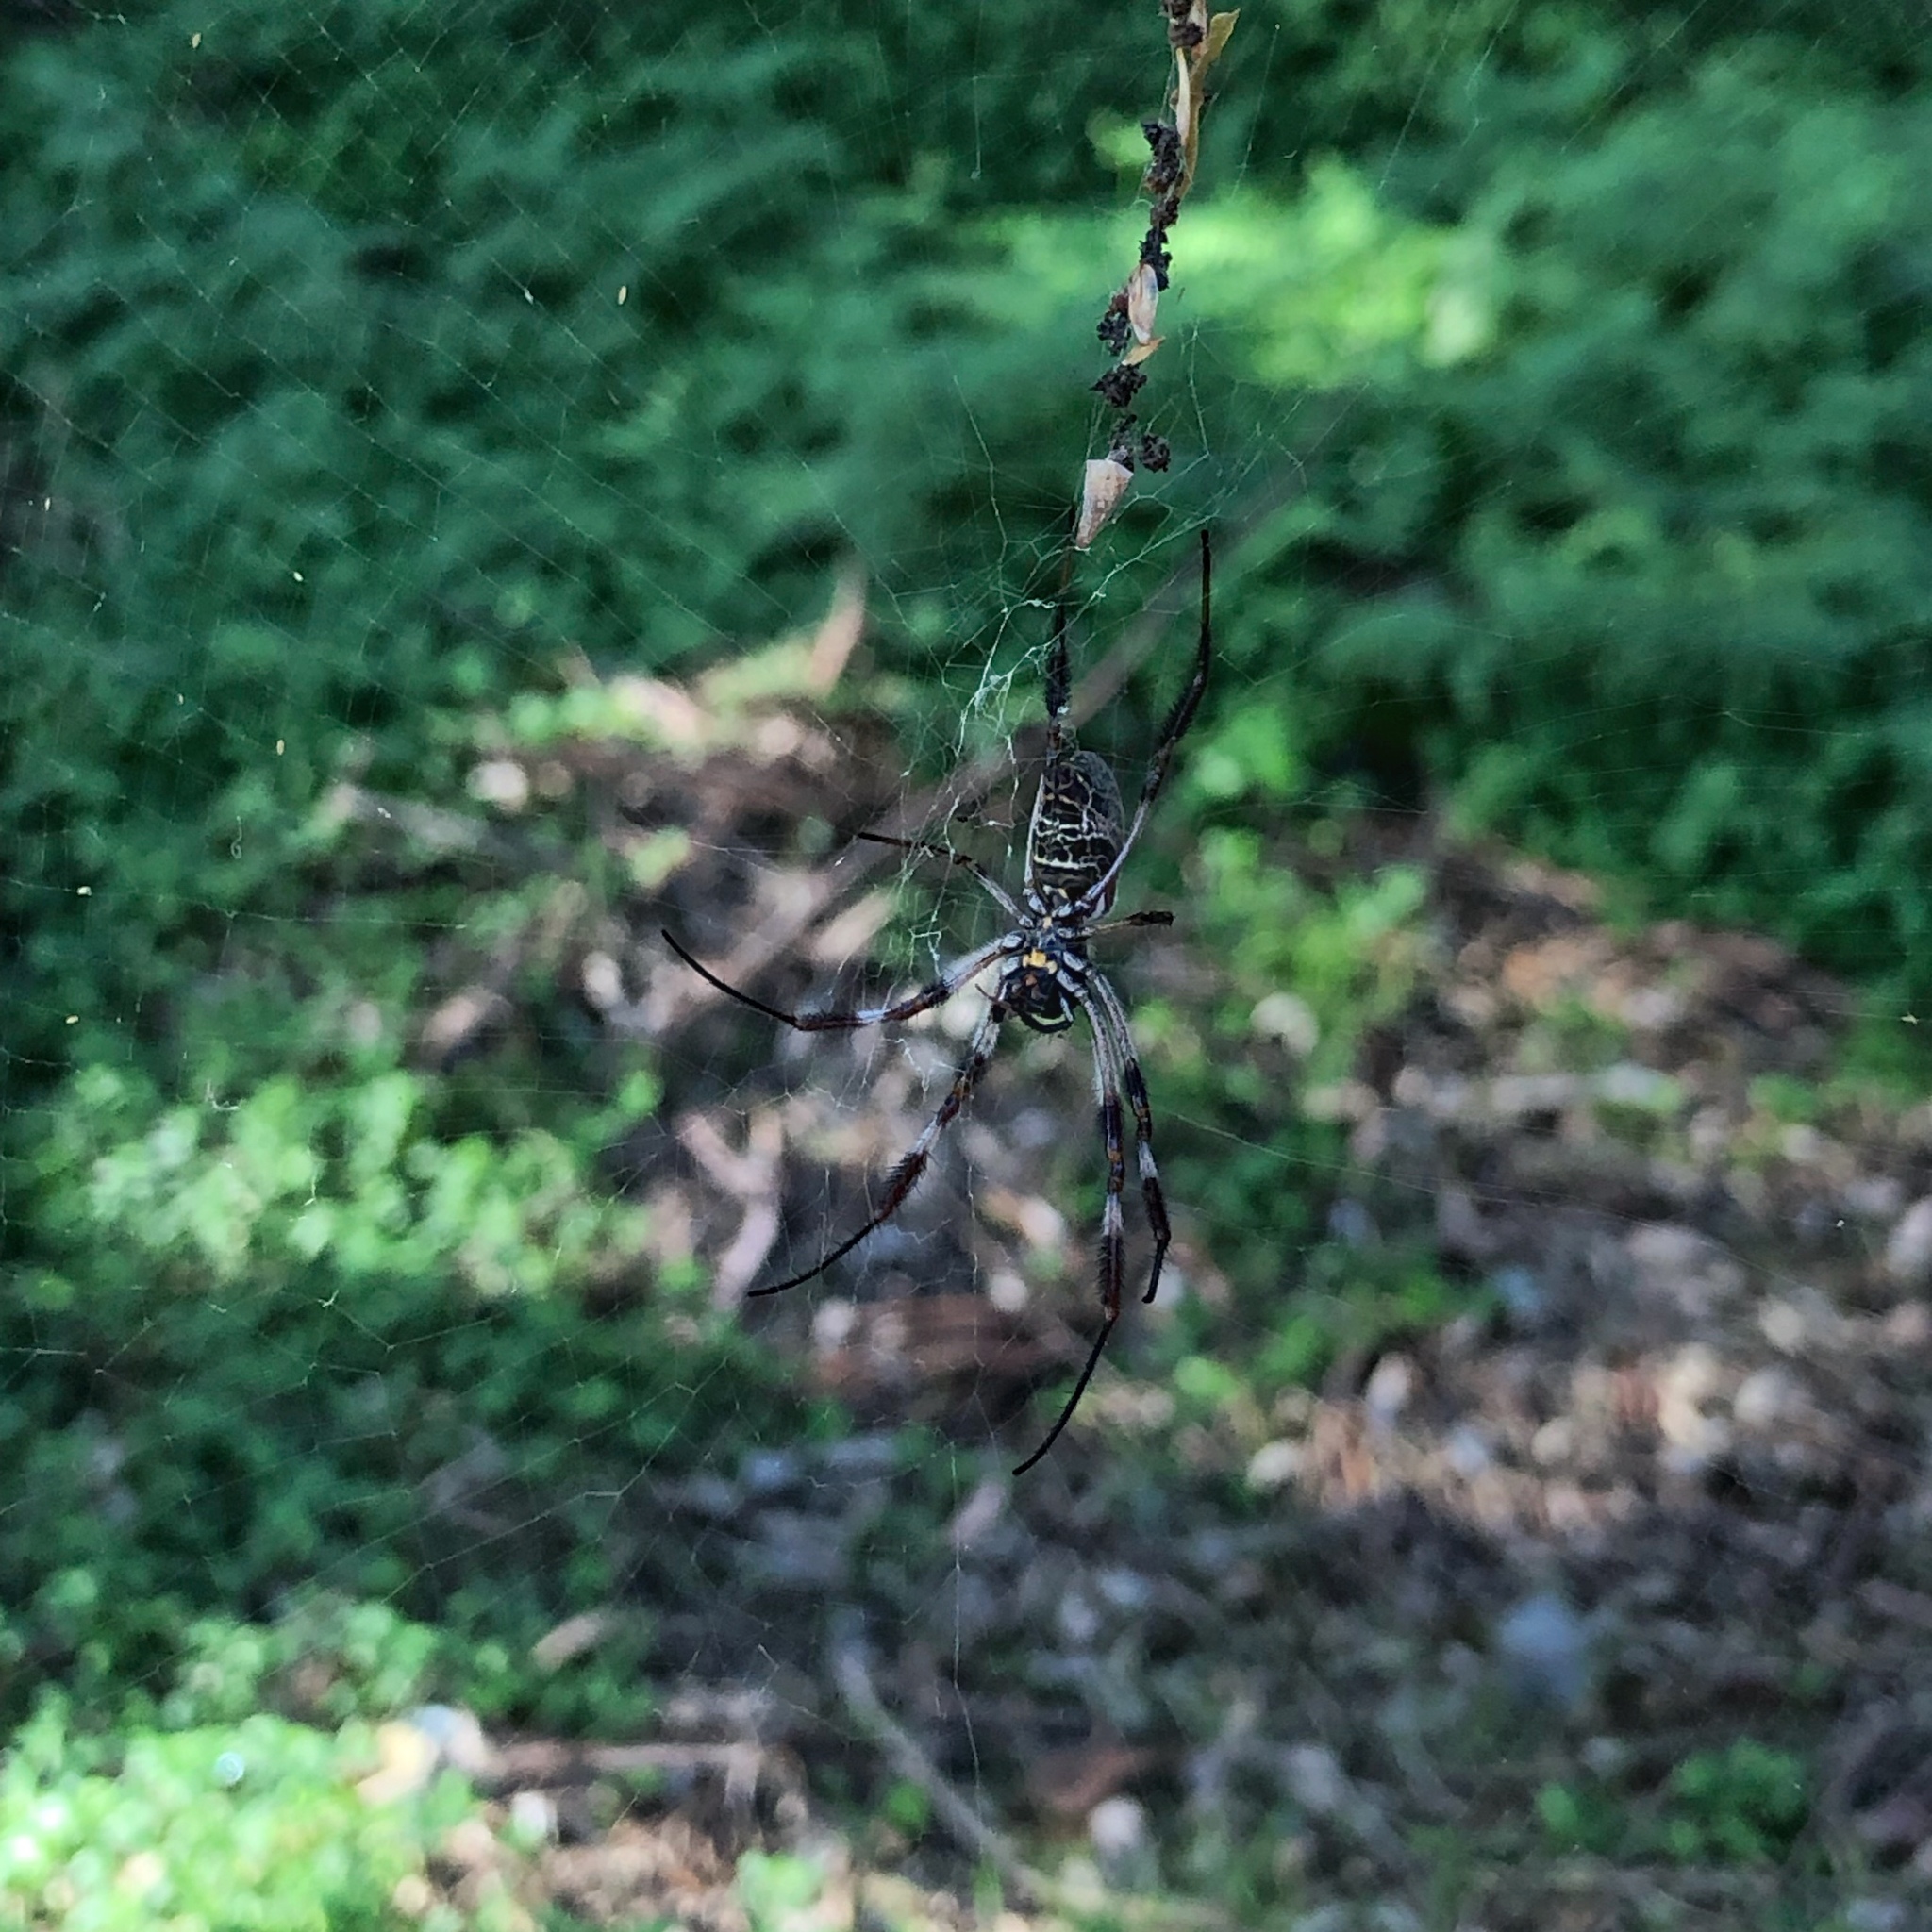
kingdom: Animalia
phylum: Arthropoda
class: Arachnida
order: Araneae
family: Araneidae
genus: Trichonephila
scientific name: Trichonephila edulis
